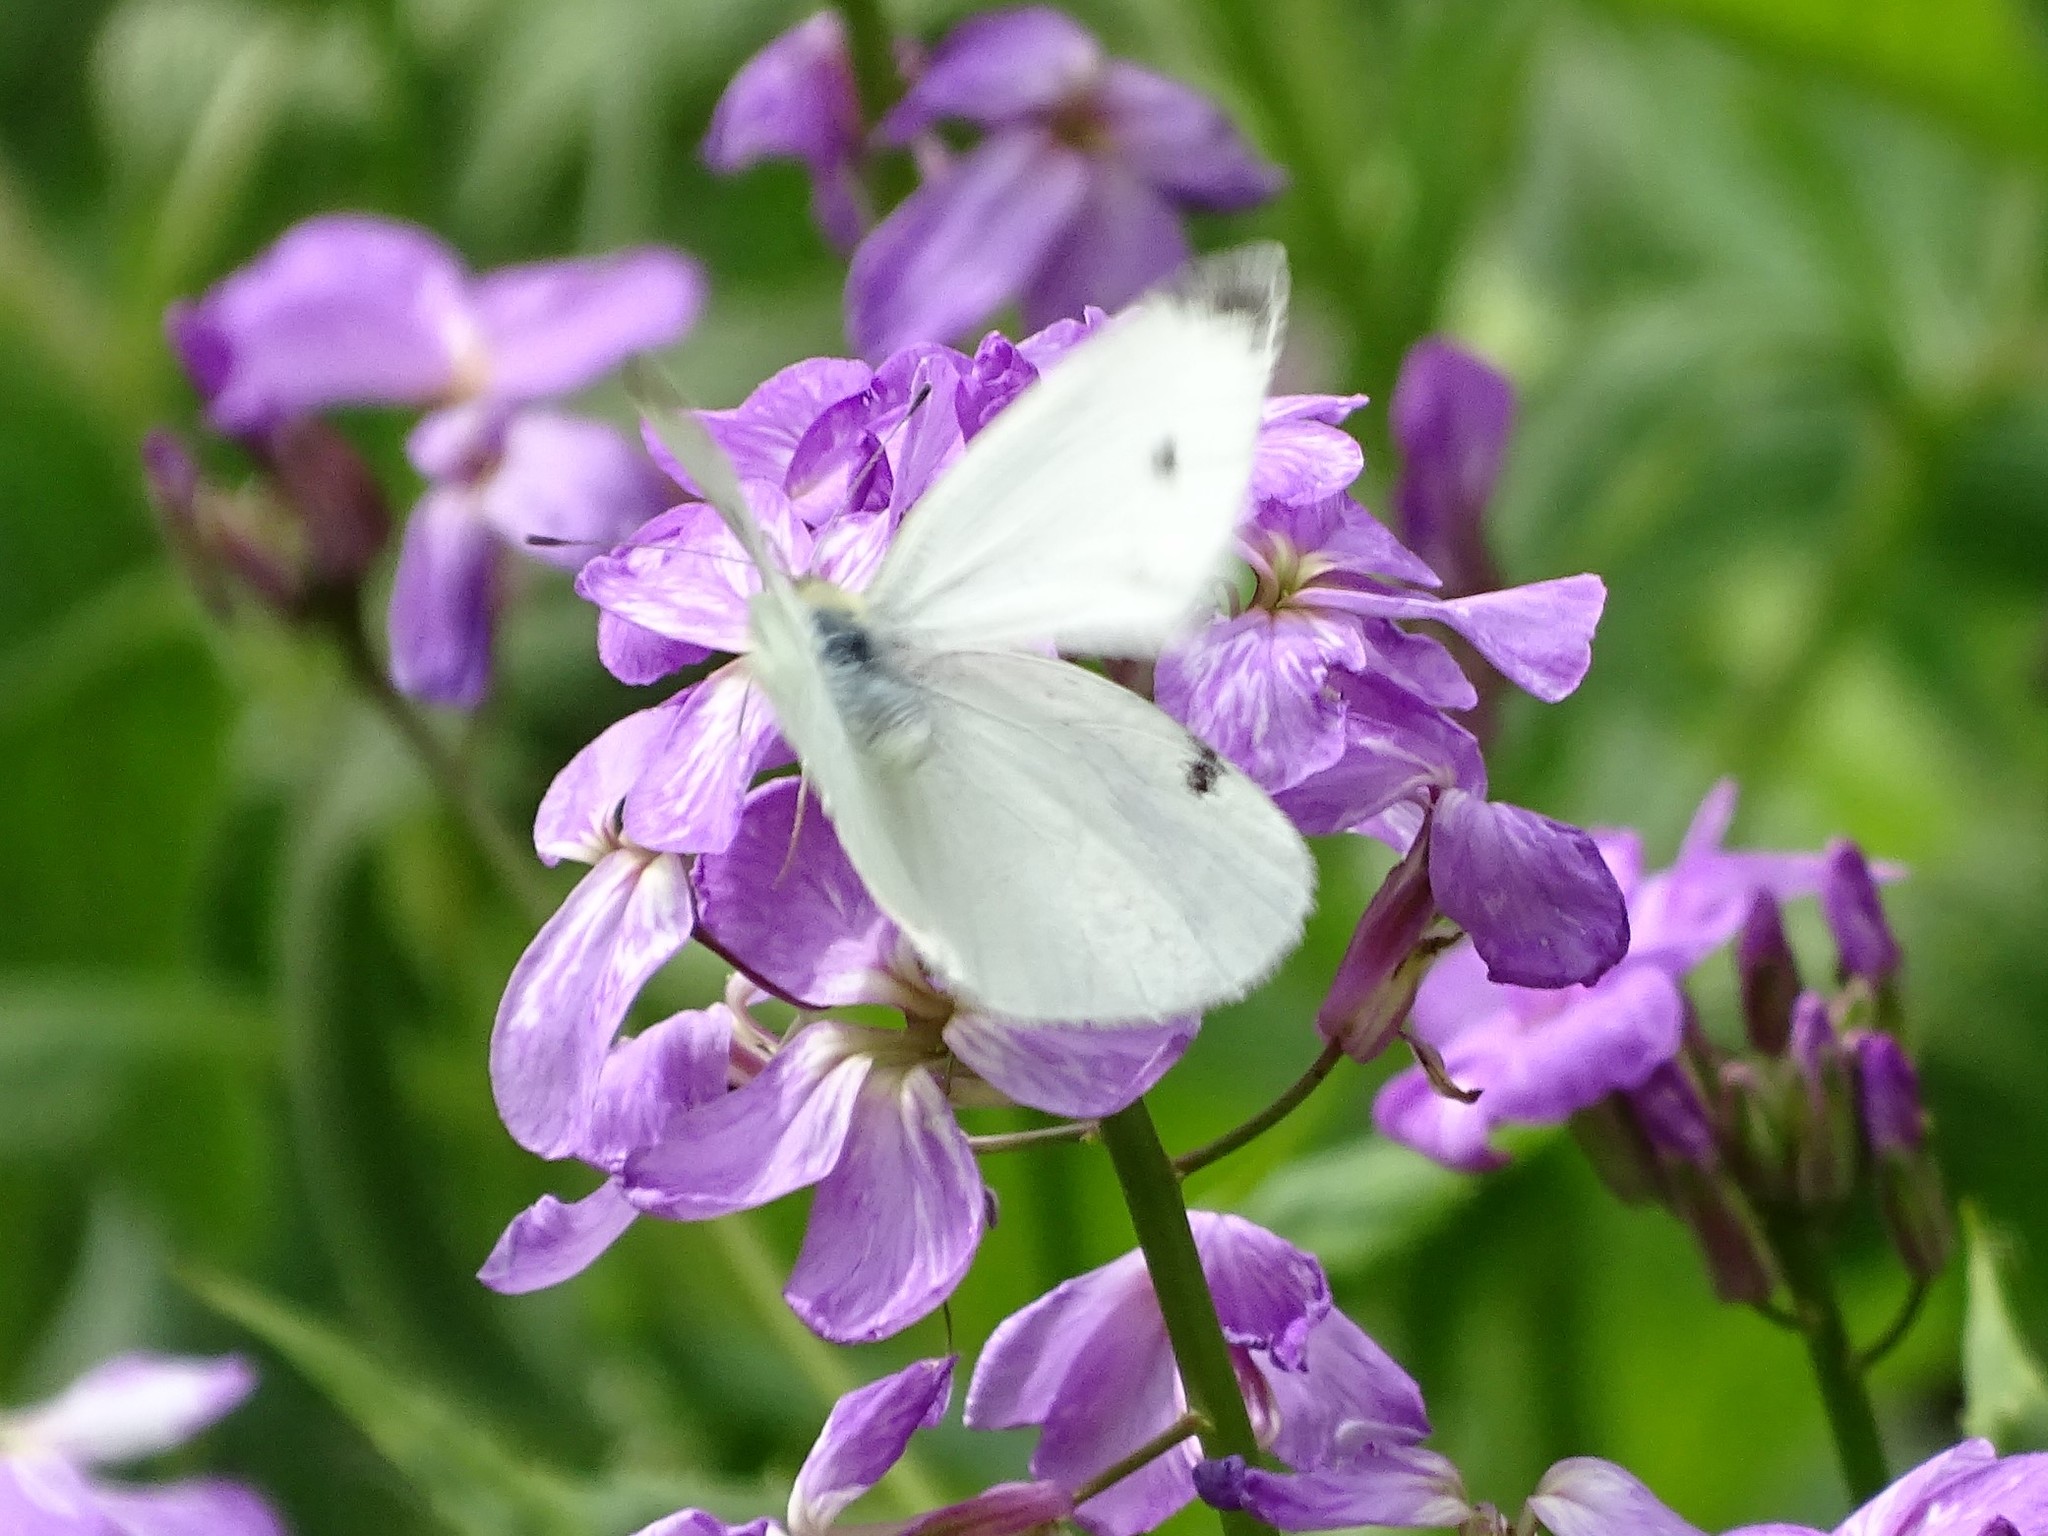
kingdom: Animalia
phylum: Arthropoda
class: Insecta
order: Lepidoptera
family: Pieridae
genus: Pieris
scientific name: Pieris rapae
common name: Small white
